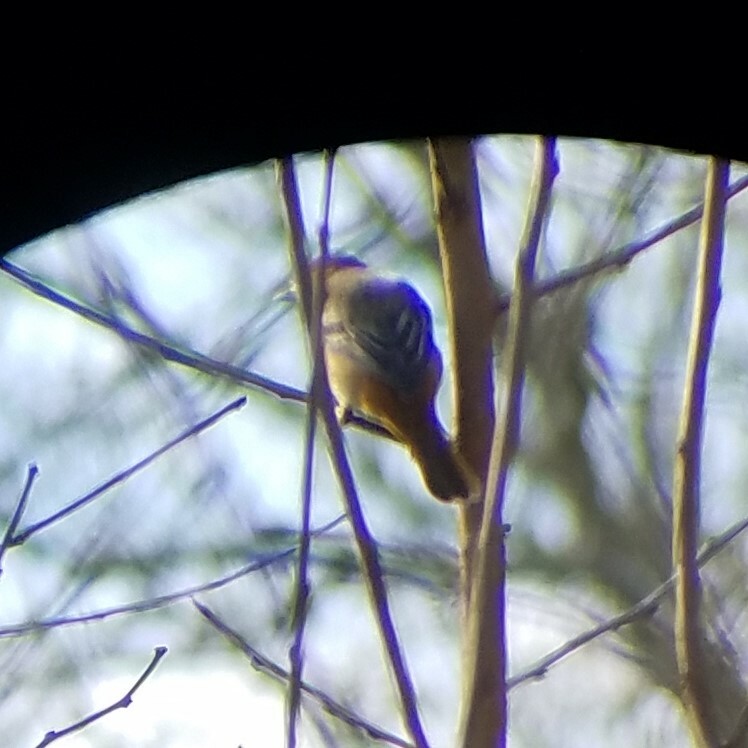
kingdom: Animalia
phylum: Chordata
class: Aves
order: Passeriformes
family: Icteridae
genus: Icterus
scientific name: Icterus galbula
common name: Baltimore oriole
